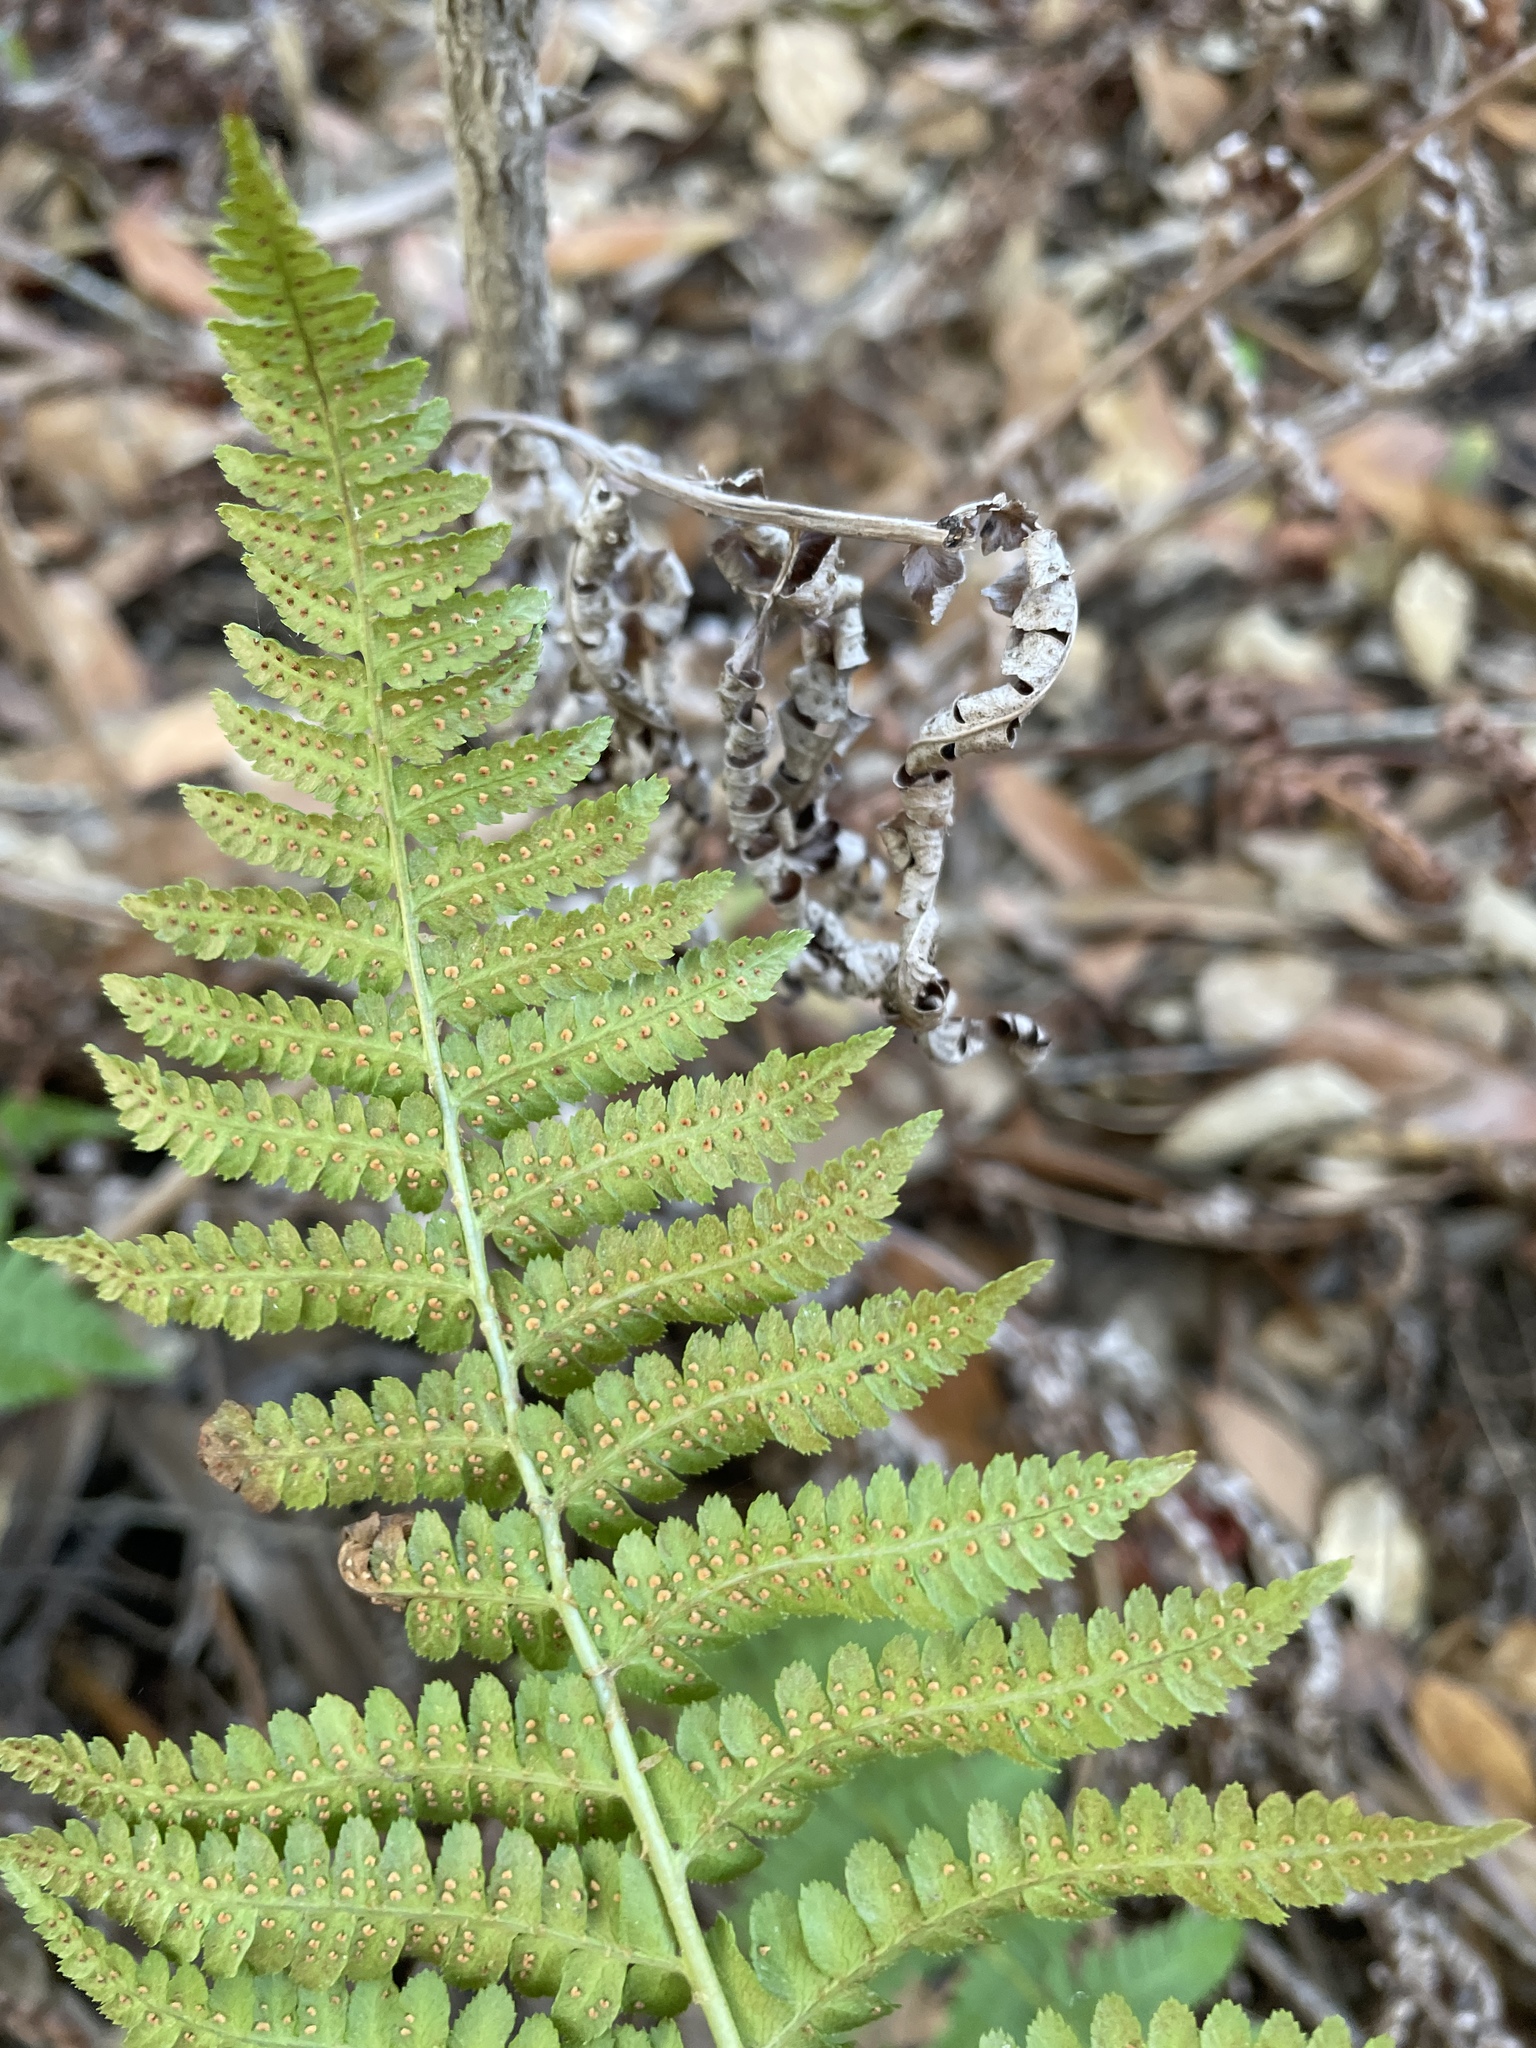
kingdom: Plantae
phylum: Tracheophyta
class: Polypodiopsida
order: Polypodiales
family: Dryopteridaceae
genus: Dryopteris
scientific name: Dryopteris arguta
